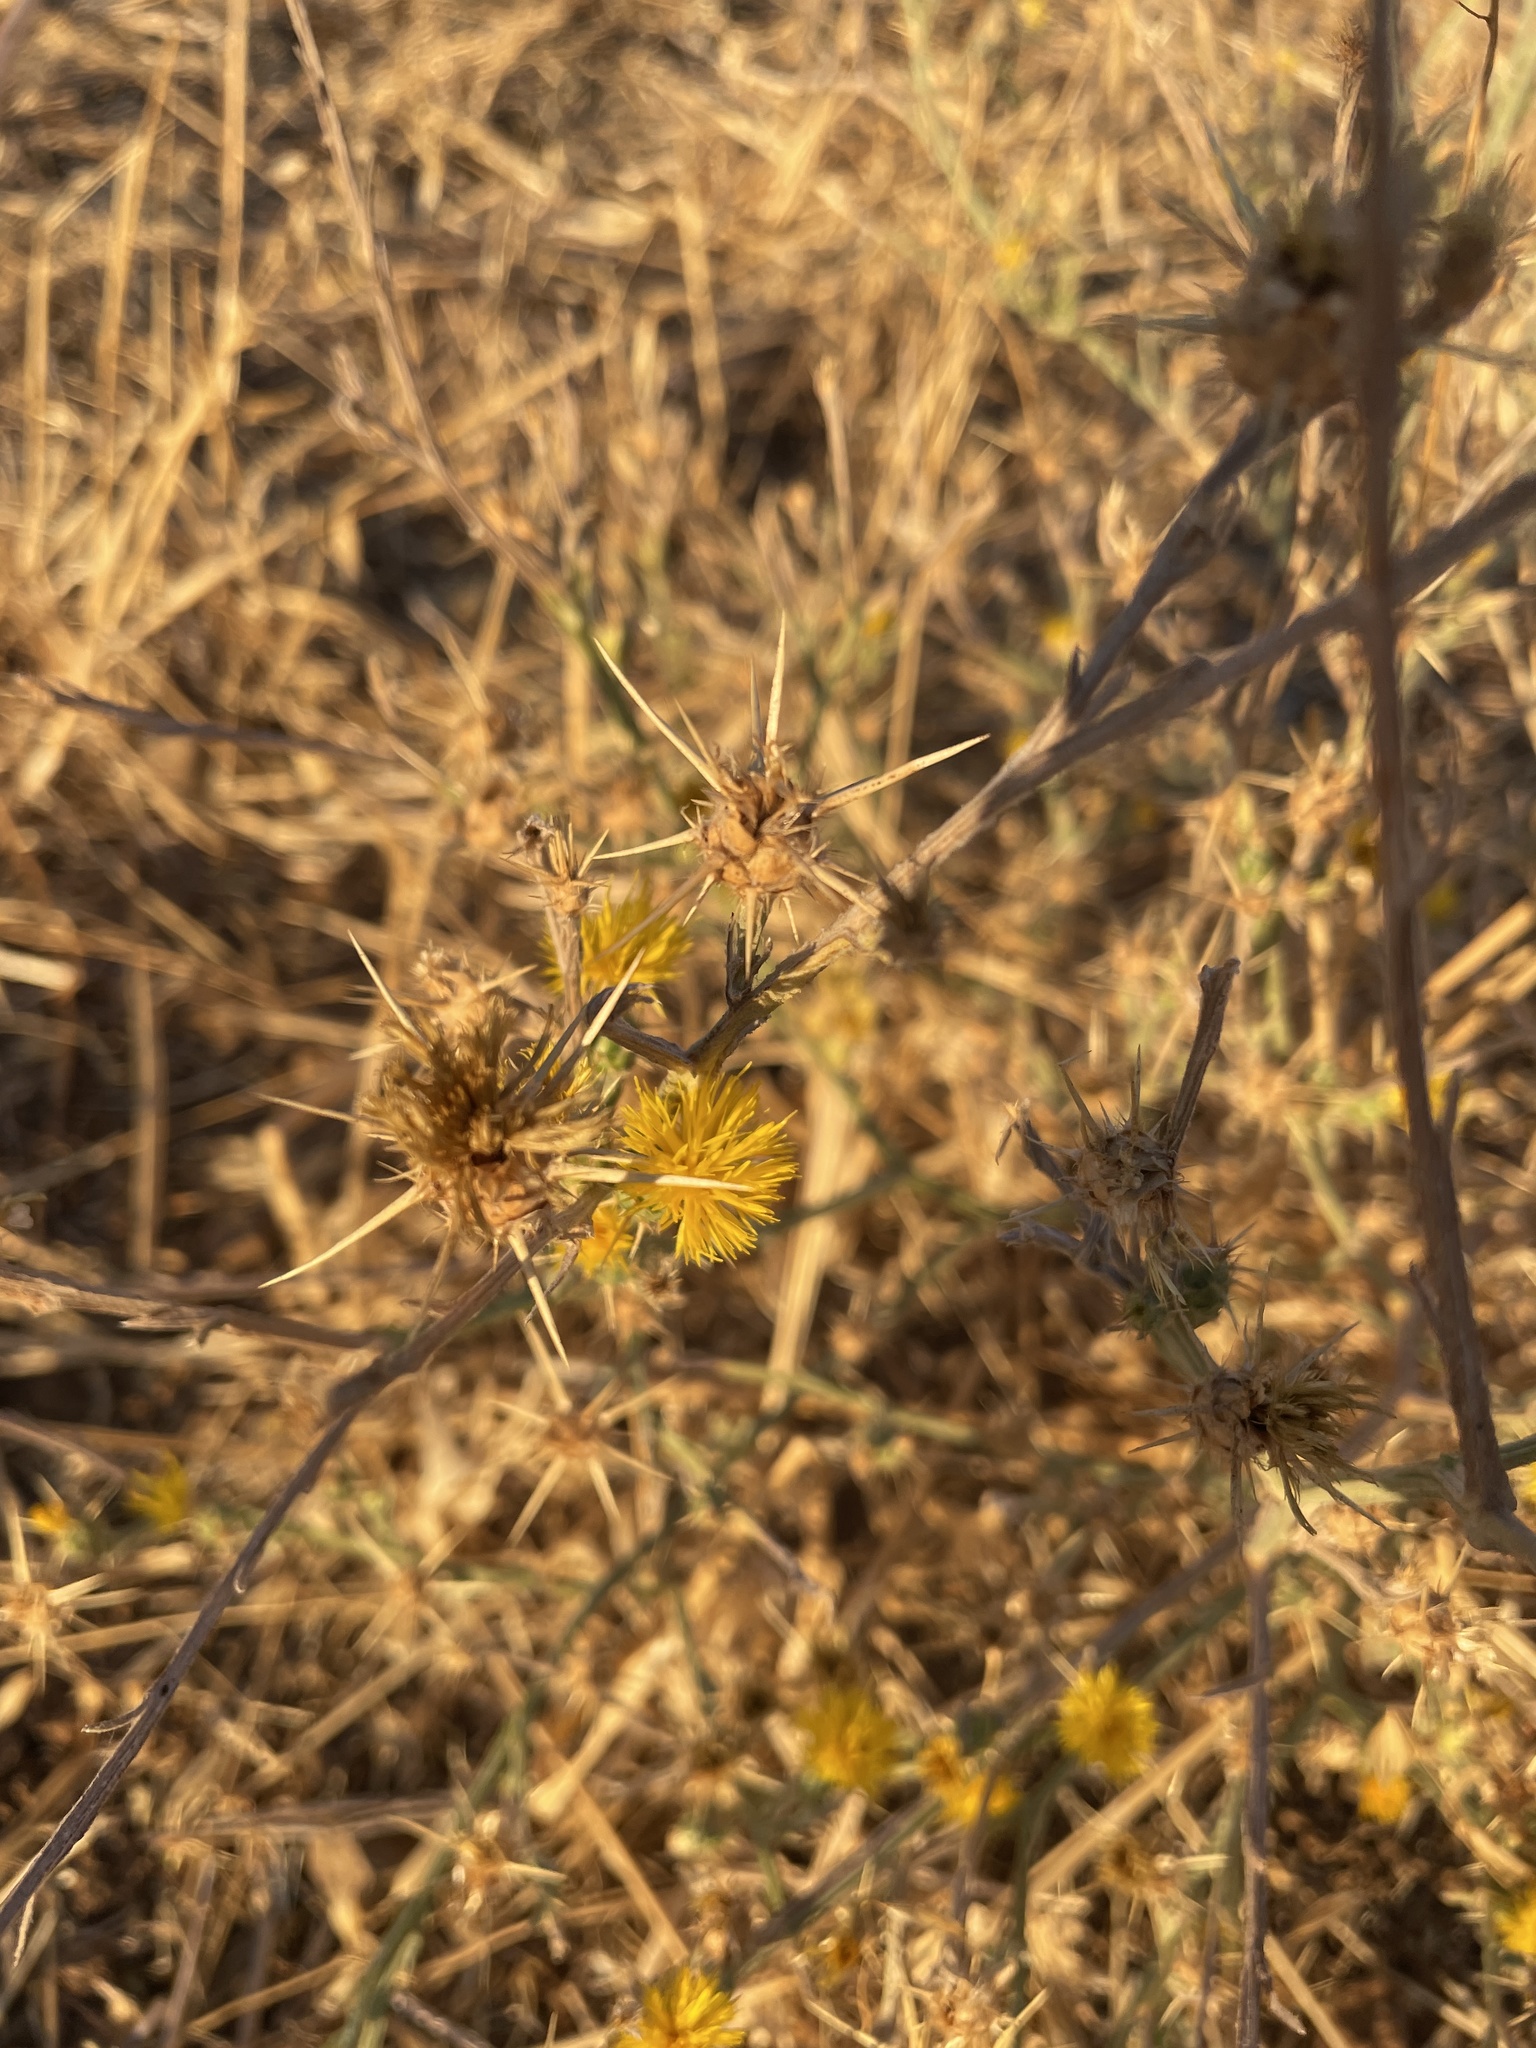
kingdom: Plantae
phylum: Tracheophyta
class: Magnoliopsida
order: Asterales
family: Asteraceae
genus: Centaurea
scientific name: Centaurea solstitialis
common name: Yellow star-thistle
